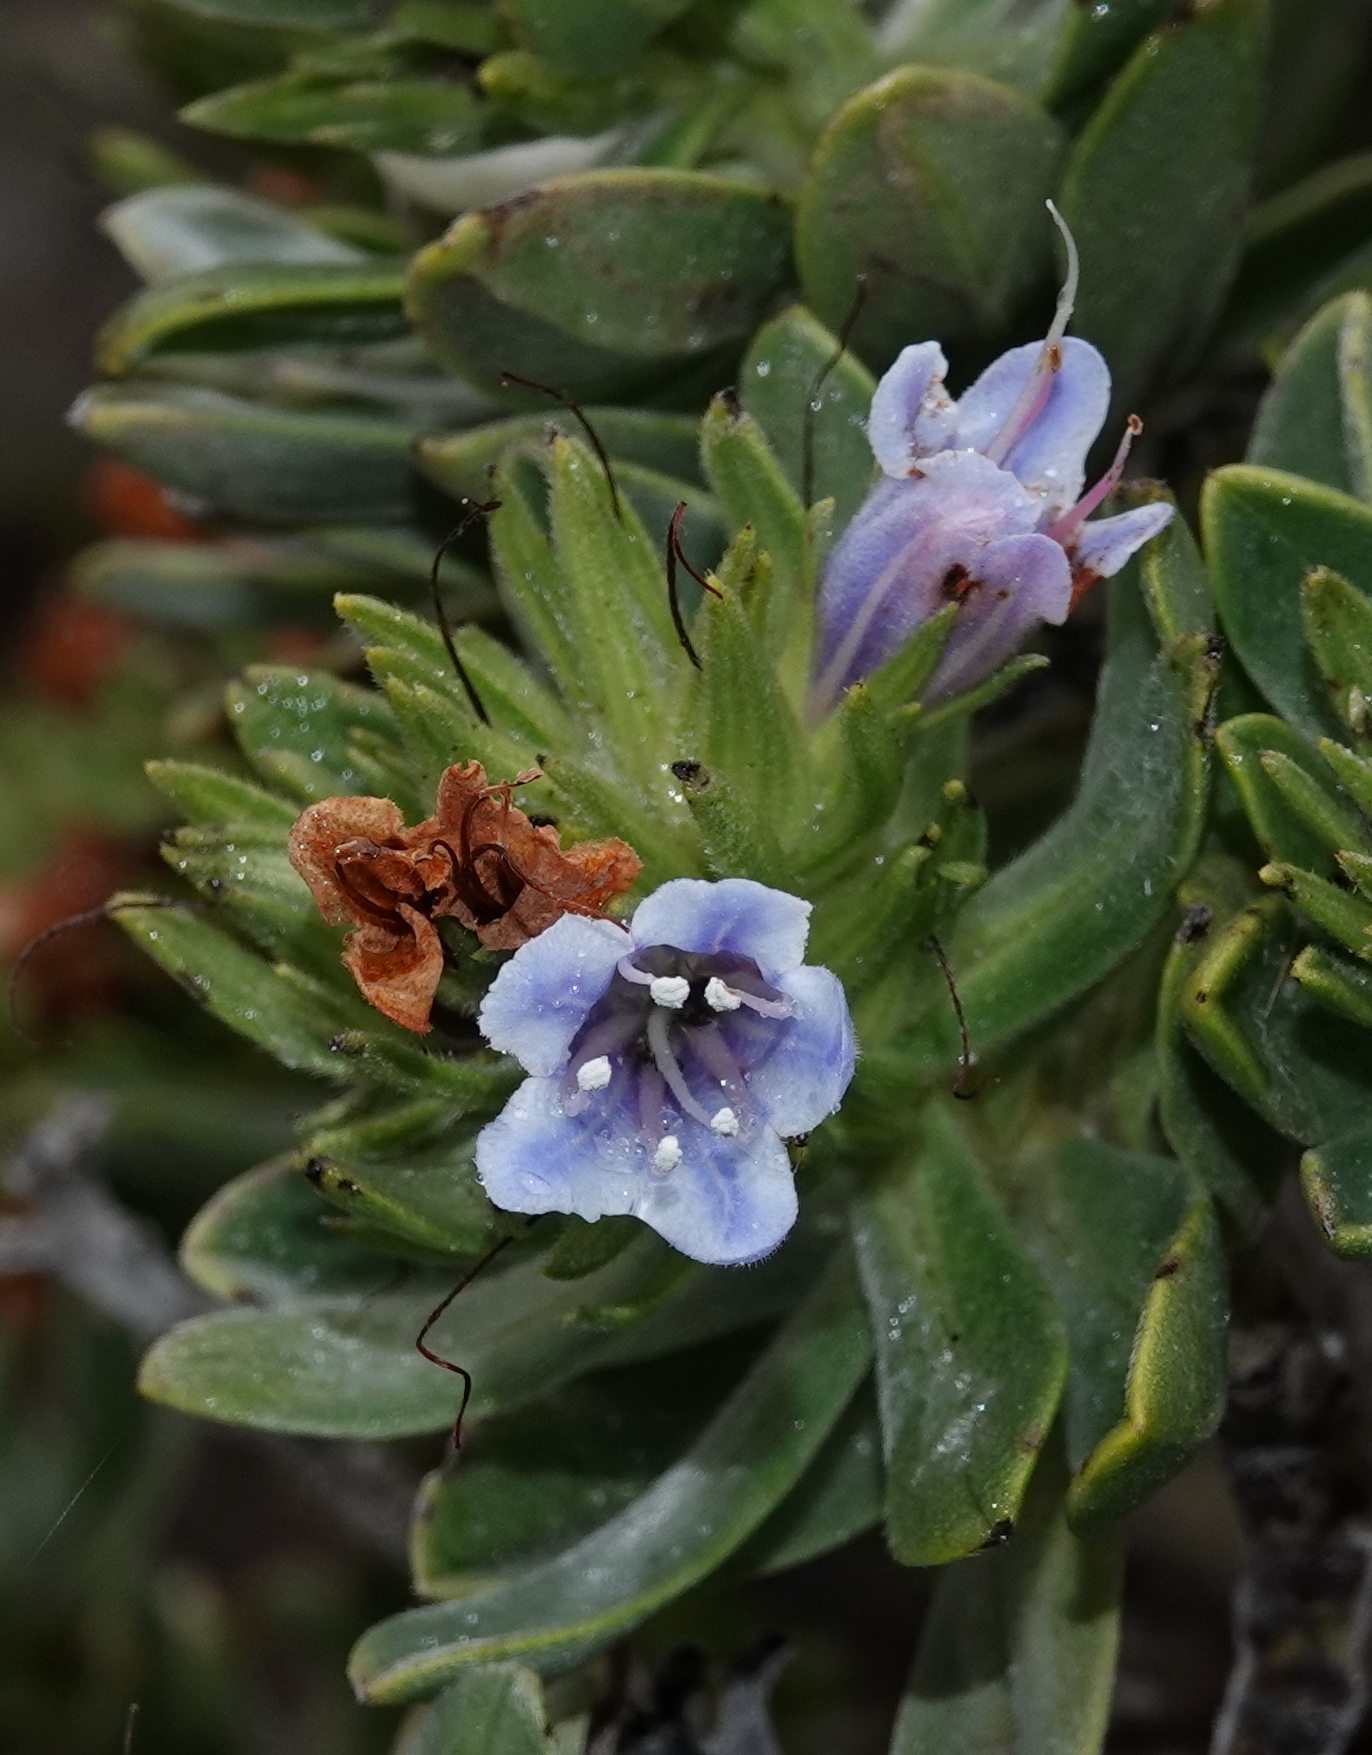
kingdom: Plantae
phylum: Tracheophyta
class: Magnoliopsida
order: Boraginales
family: Boraginaceae
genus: Lobostemon
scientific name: Lobostemon montanus
